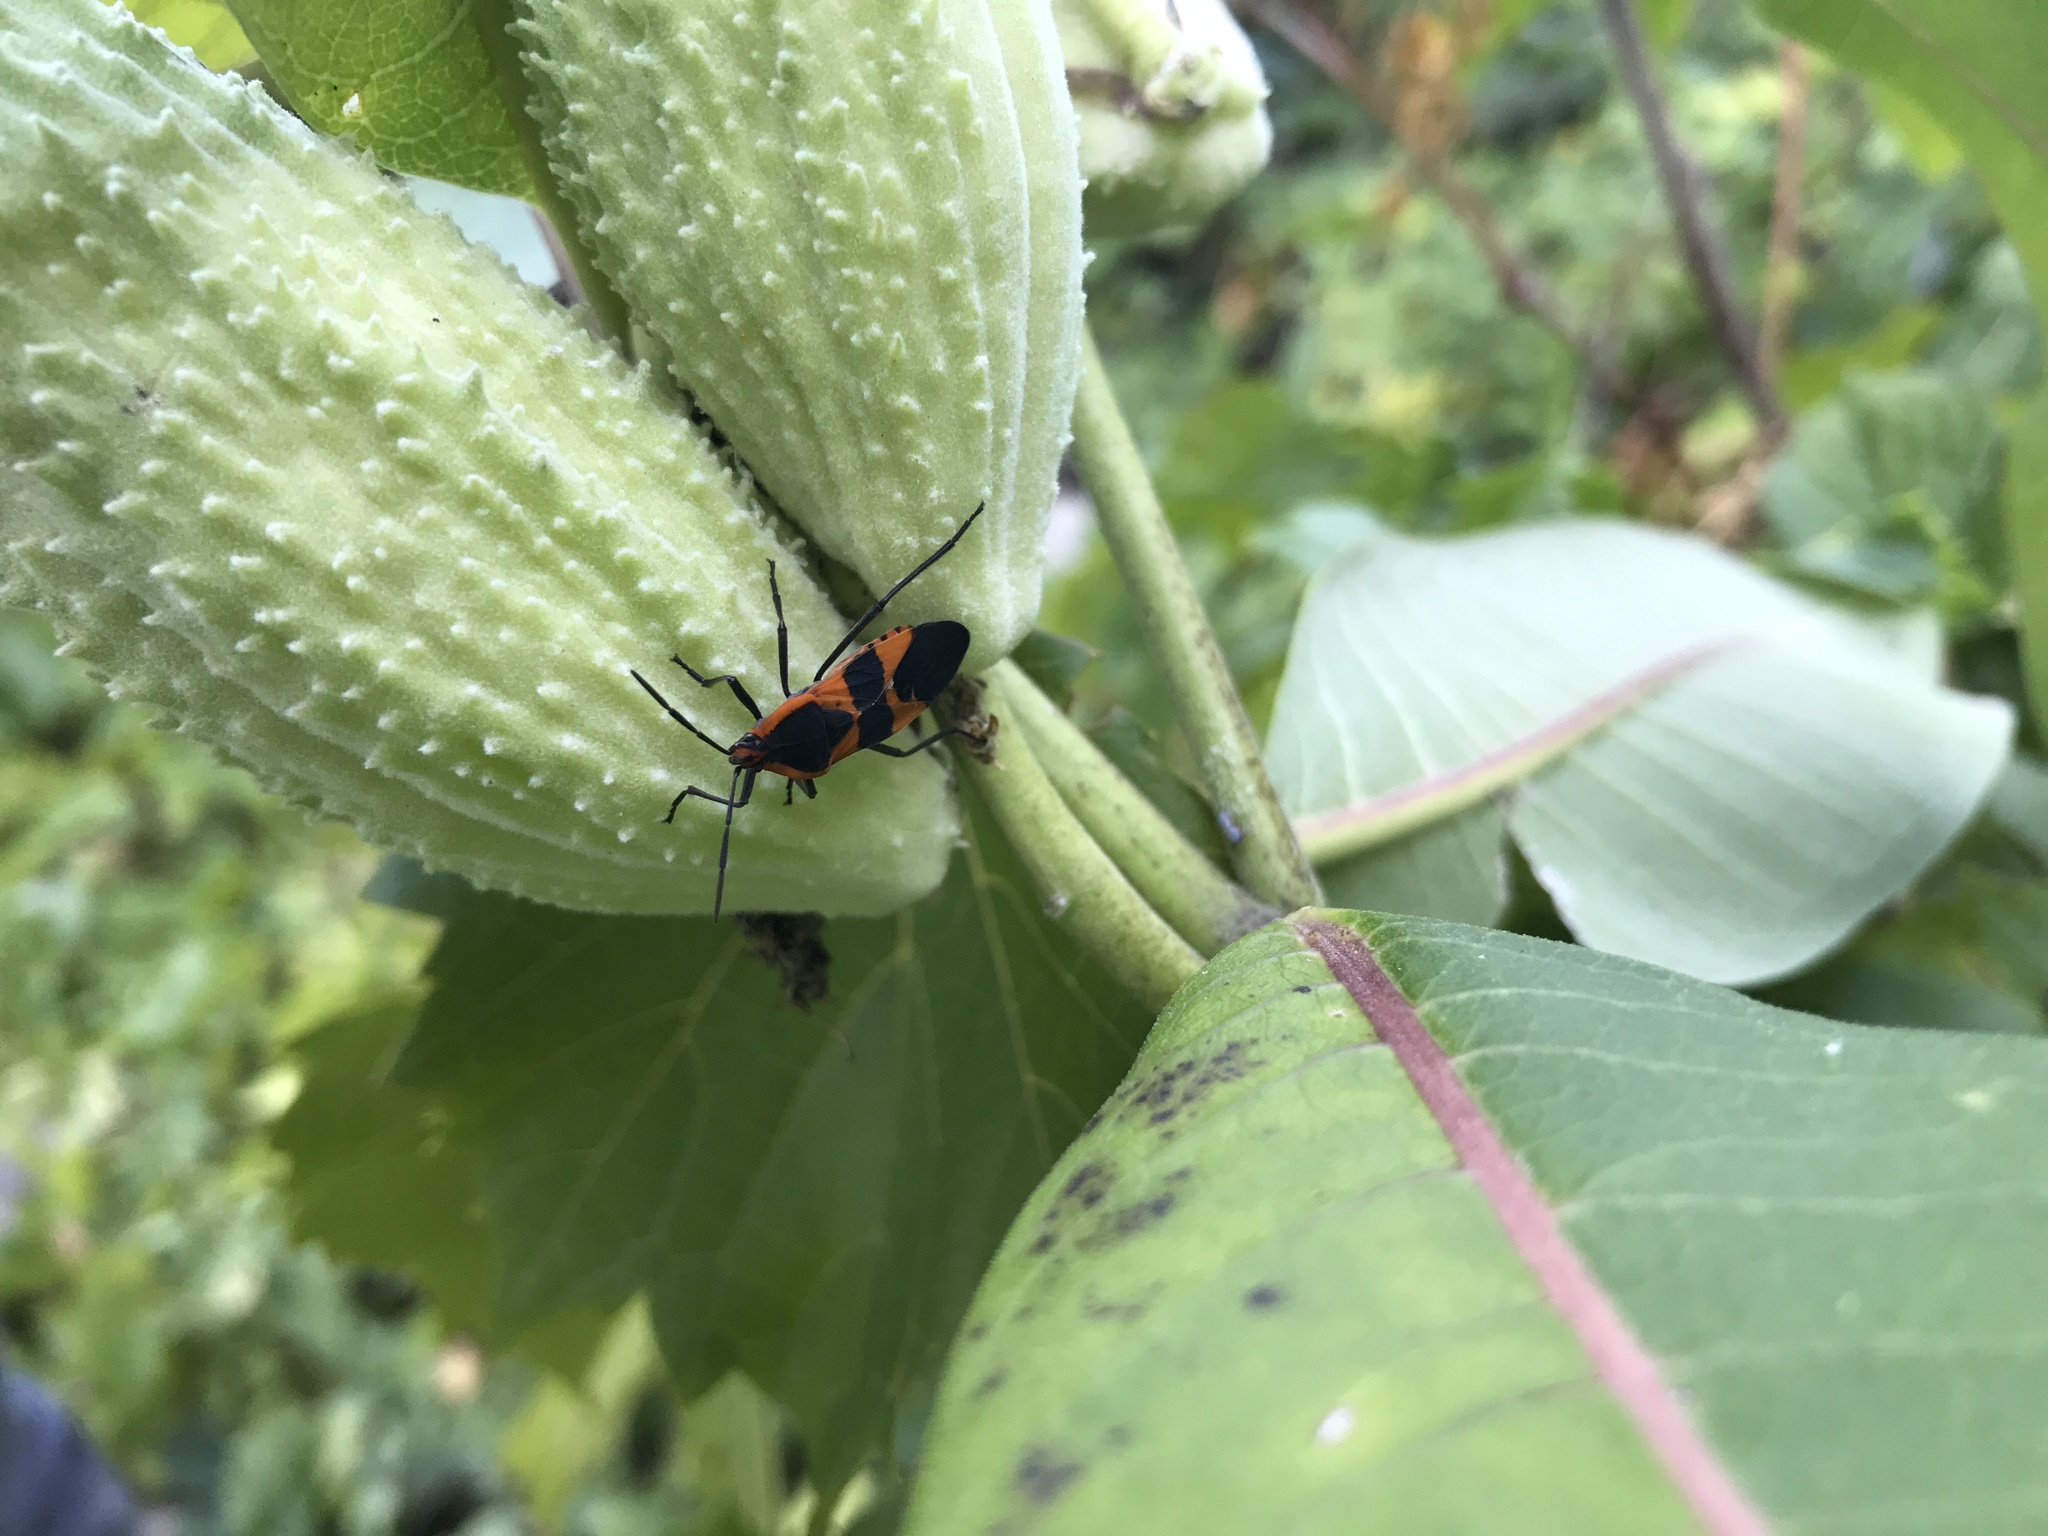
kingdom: Animalia
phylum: Arthropoda
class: Insecta
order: Hemiptera
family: Lygaeidae
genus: Oncopeltus
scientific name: Oncopeltus fasciatus
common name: Large milkweed bug
